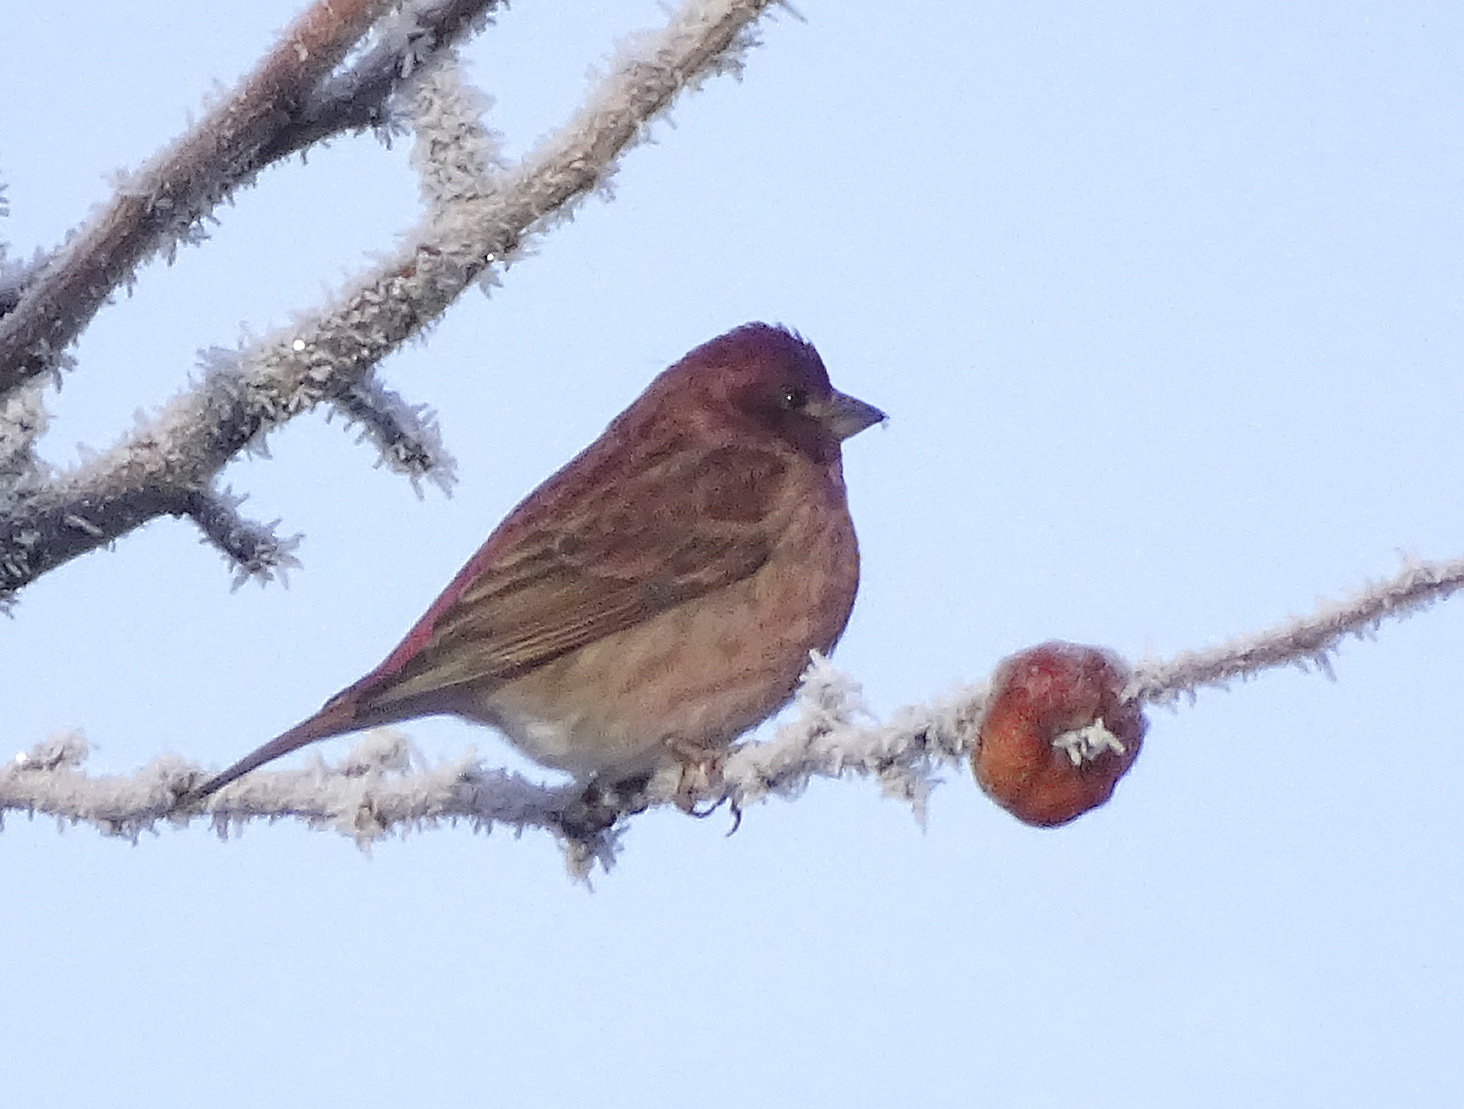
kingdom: Animalia
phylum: Chordata
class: Aves
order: Passeriformes
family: Fringillidae
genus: Haemorhous
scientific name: Haemorhous purpureus
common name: Purple finch
